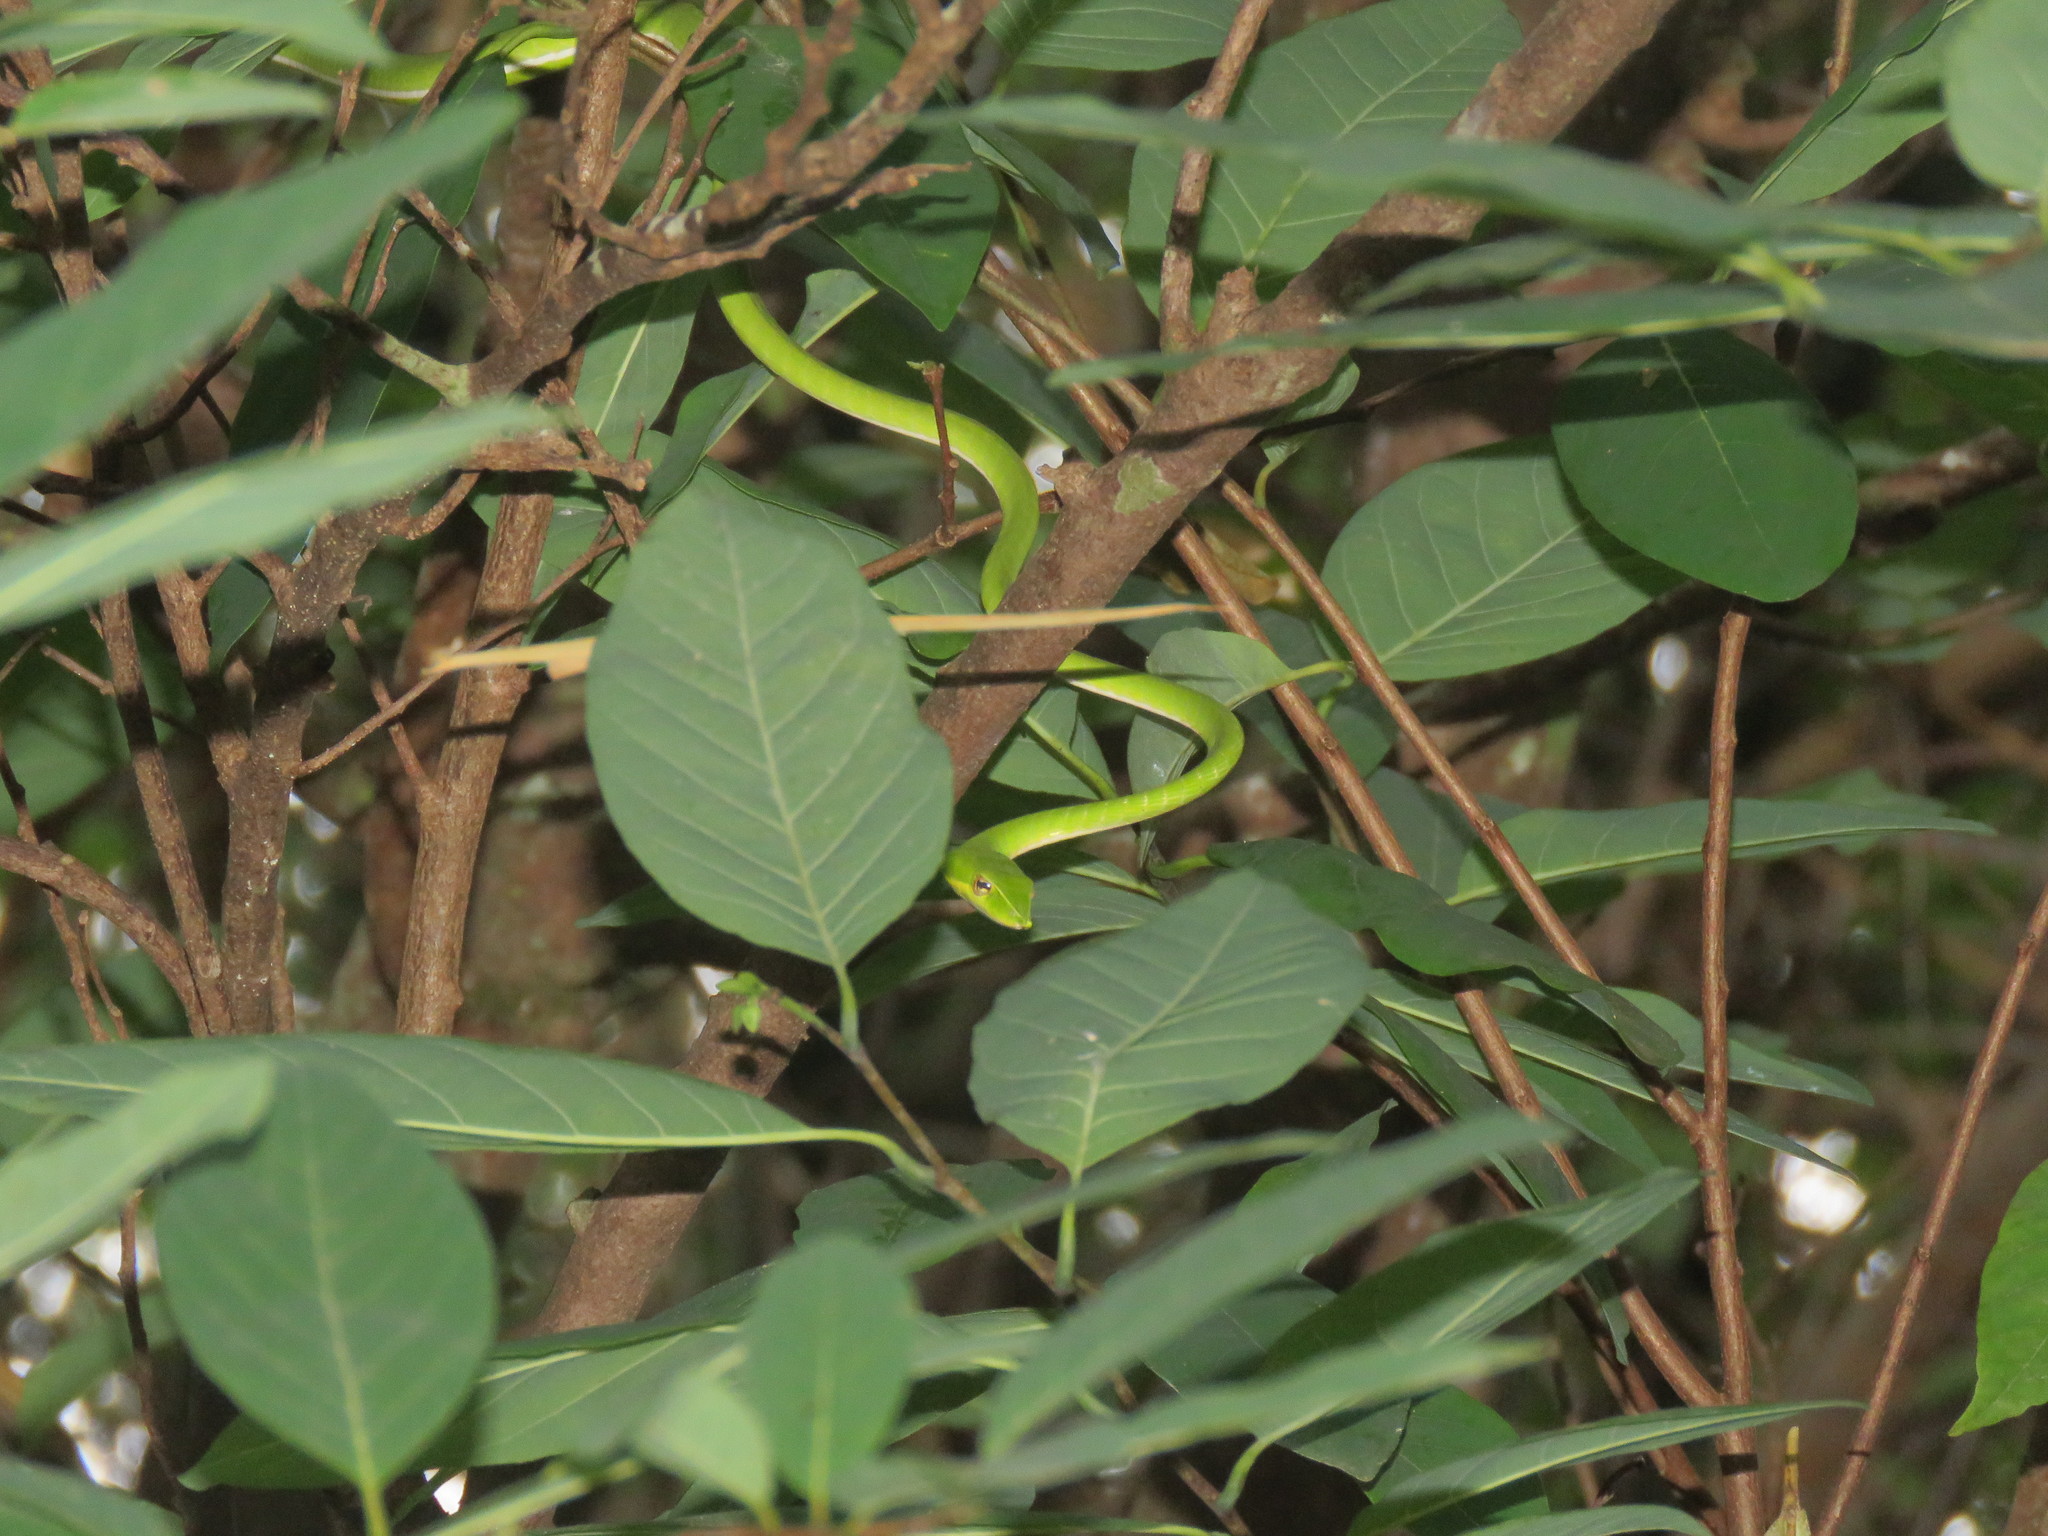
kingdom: Animalia
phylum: Chordata
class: Squamata
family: Colubridae
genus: Ahaetulla
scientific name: Ahaetulla oxyrhyncha
